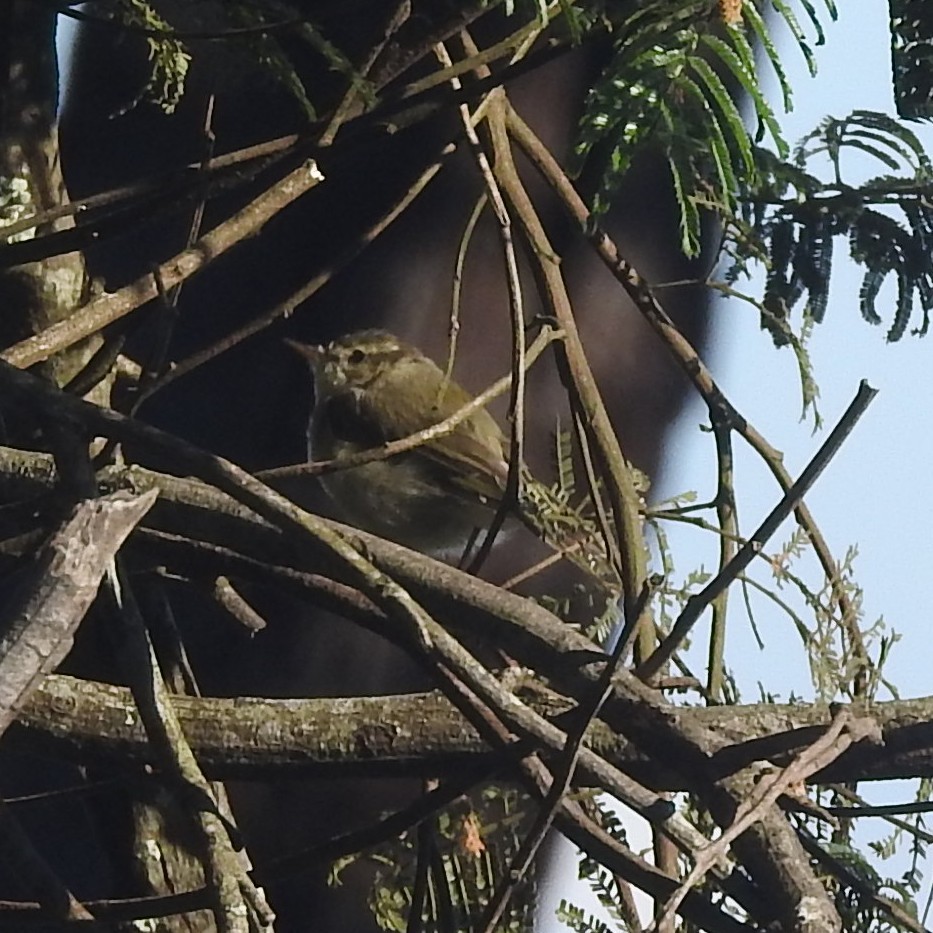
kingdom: Animalia
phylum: Chordata
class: Aves
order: Passeriformes
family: Phylloscopidae
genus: Phylloscopus
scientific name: Phylloscopus tytleri
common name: Tytler's leaf warbler
